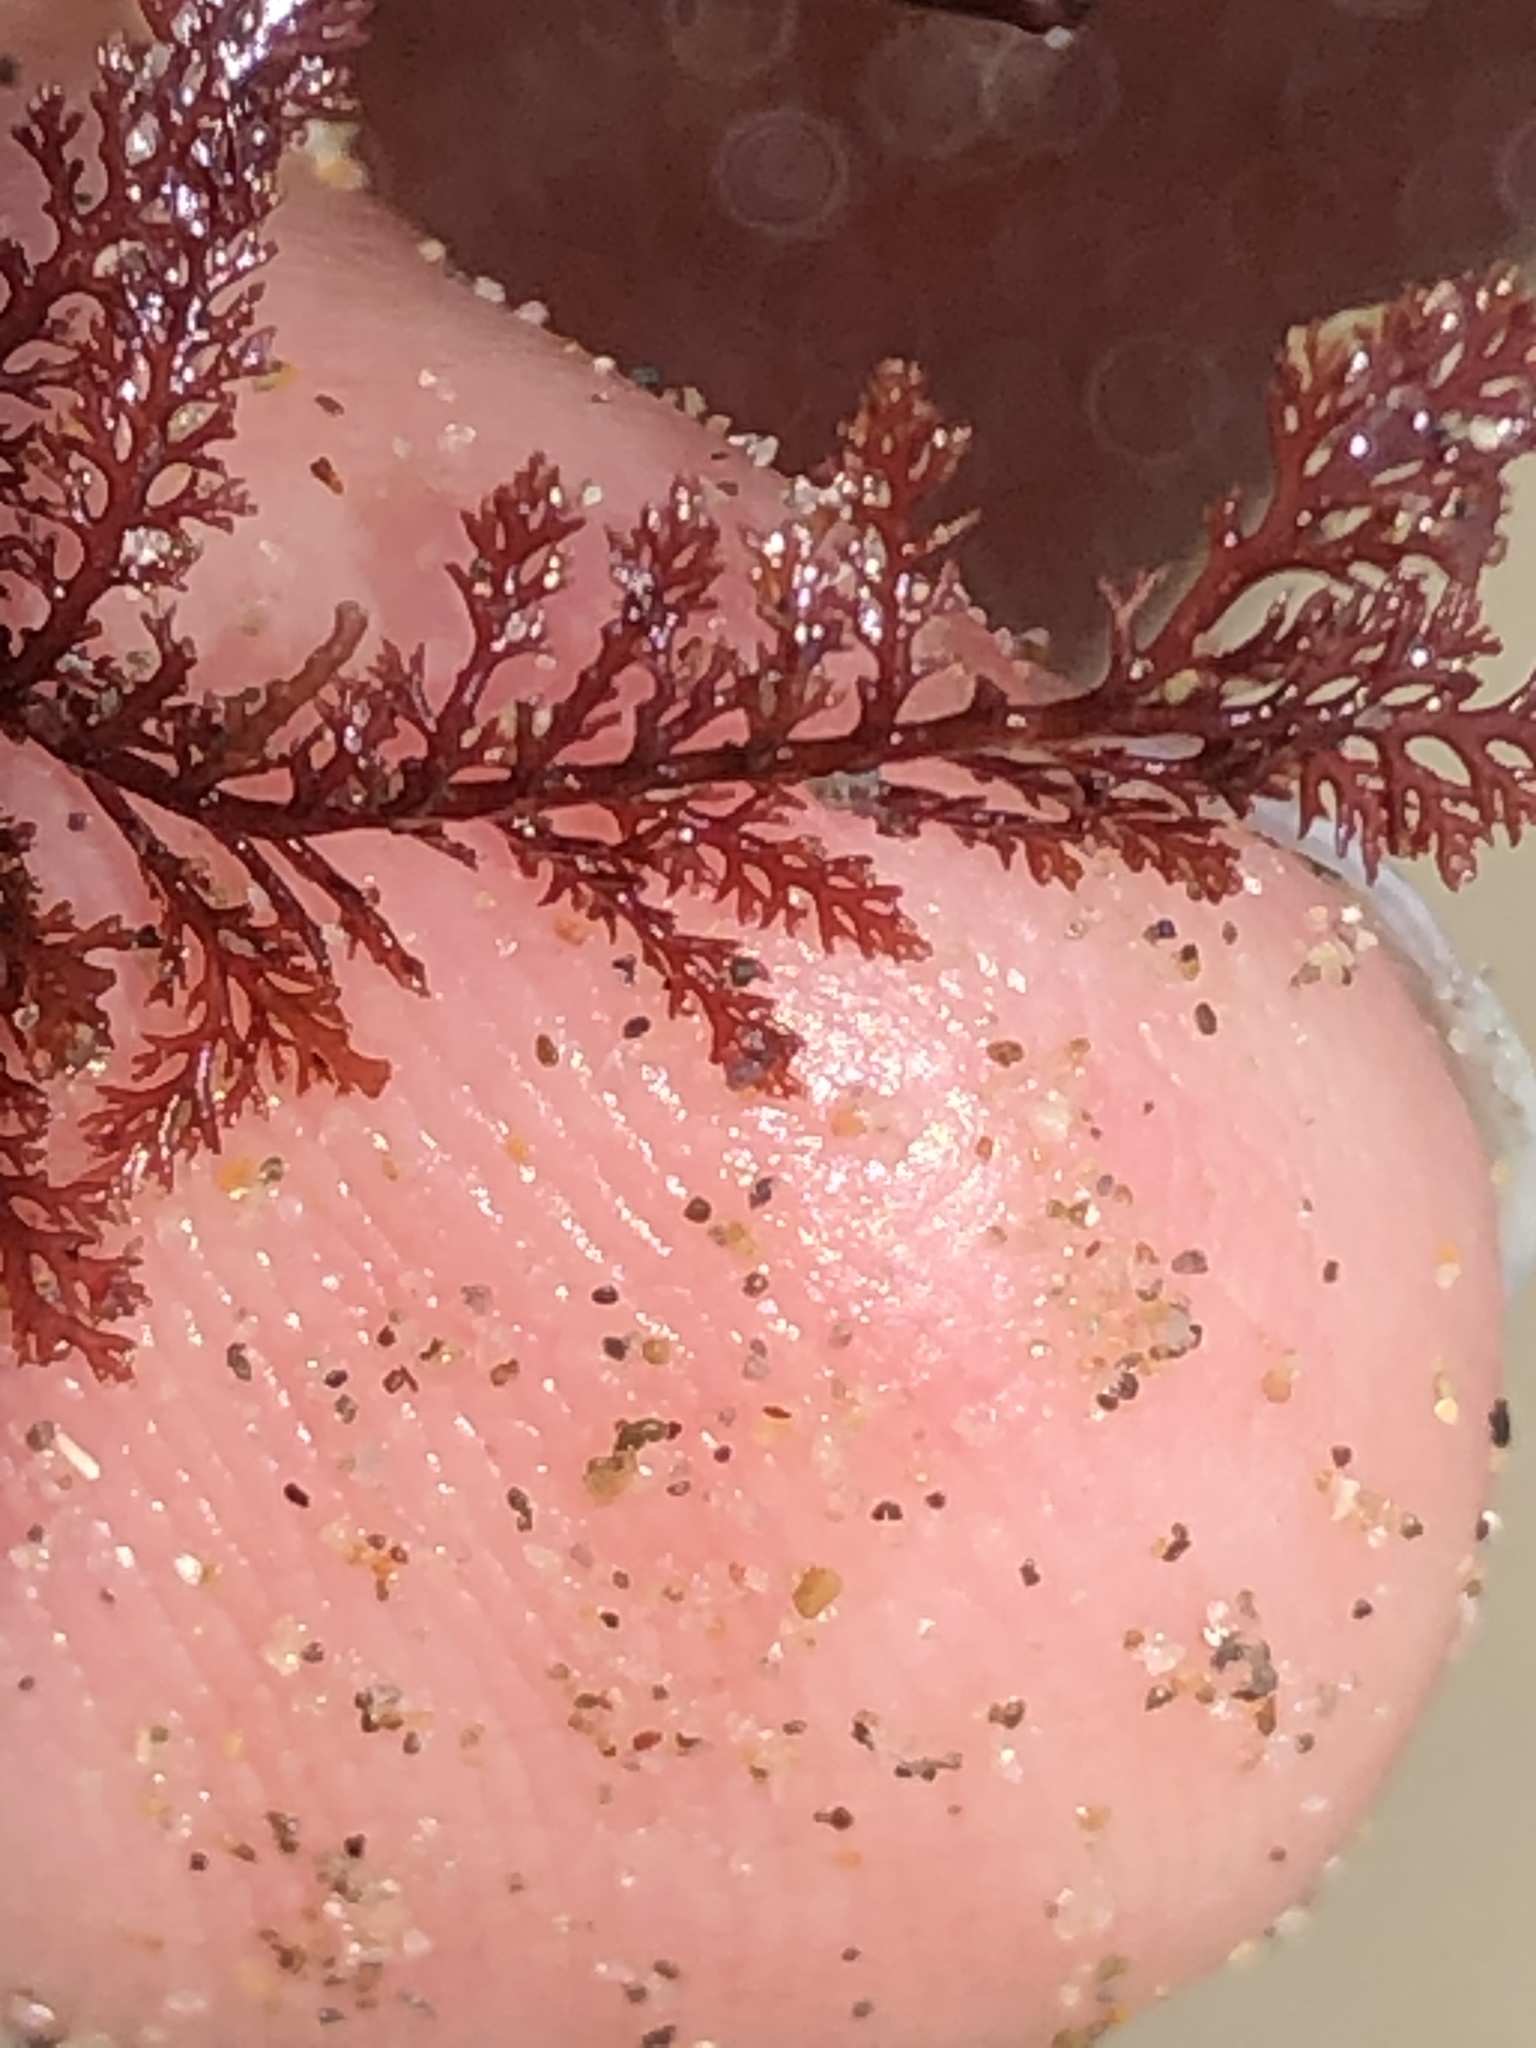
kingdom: Plantae
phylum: Rhodophyta
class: Florideophyceae
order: Ceramiales
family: Ceramiaceae
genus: Microcladia
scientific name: Microcladia coulteri
